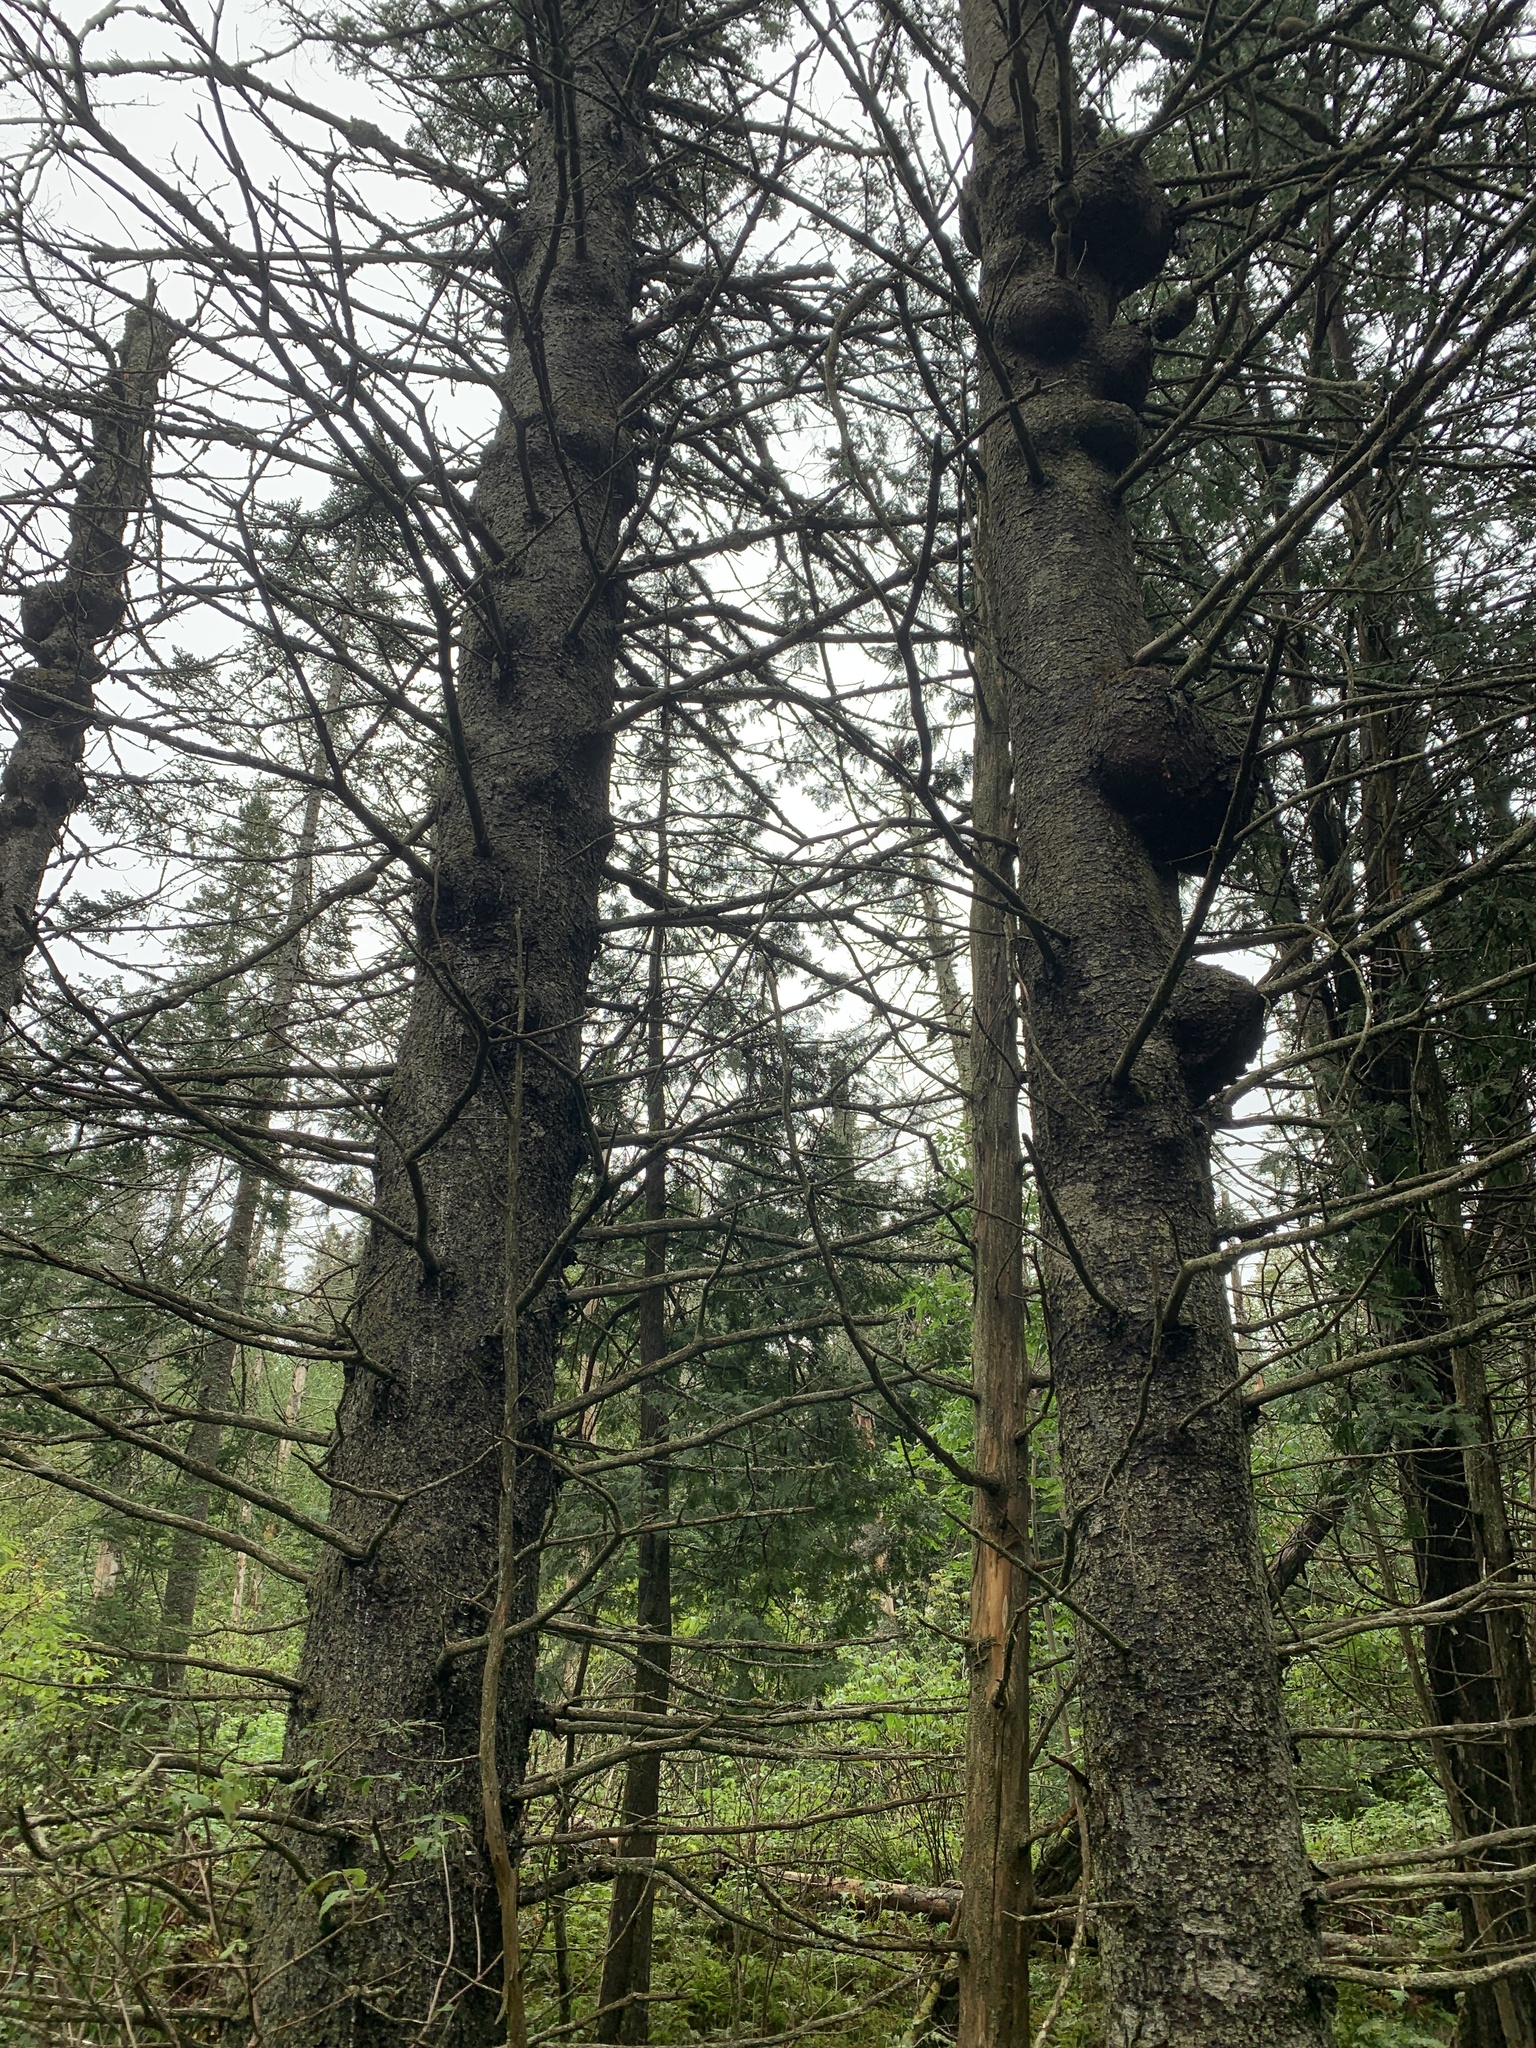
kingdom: Plantae
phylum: Tracheophyta
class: Pinopsida
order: Pinales
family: Pinaceae
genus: Picea
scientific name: Picea glauca
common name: White spruce
